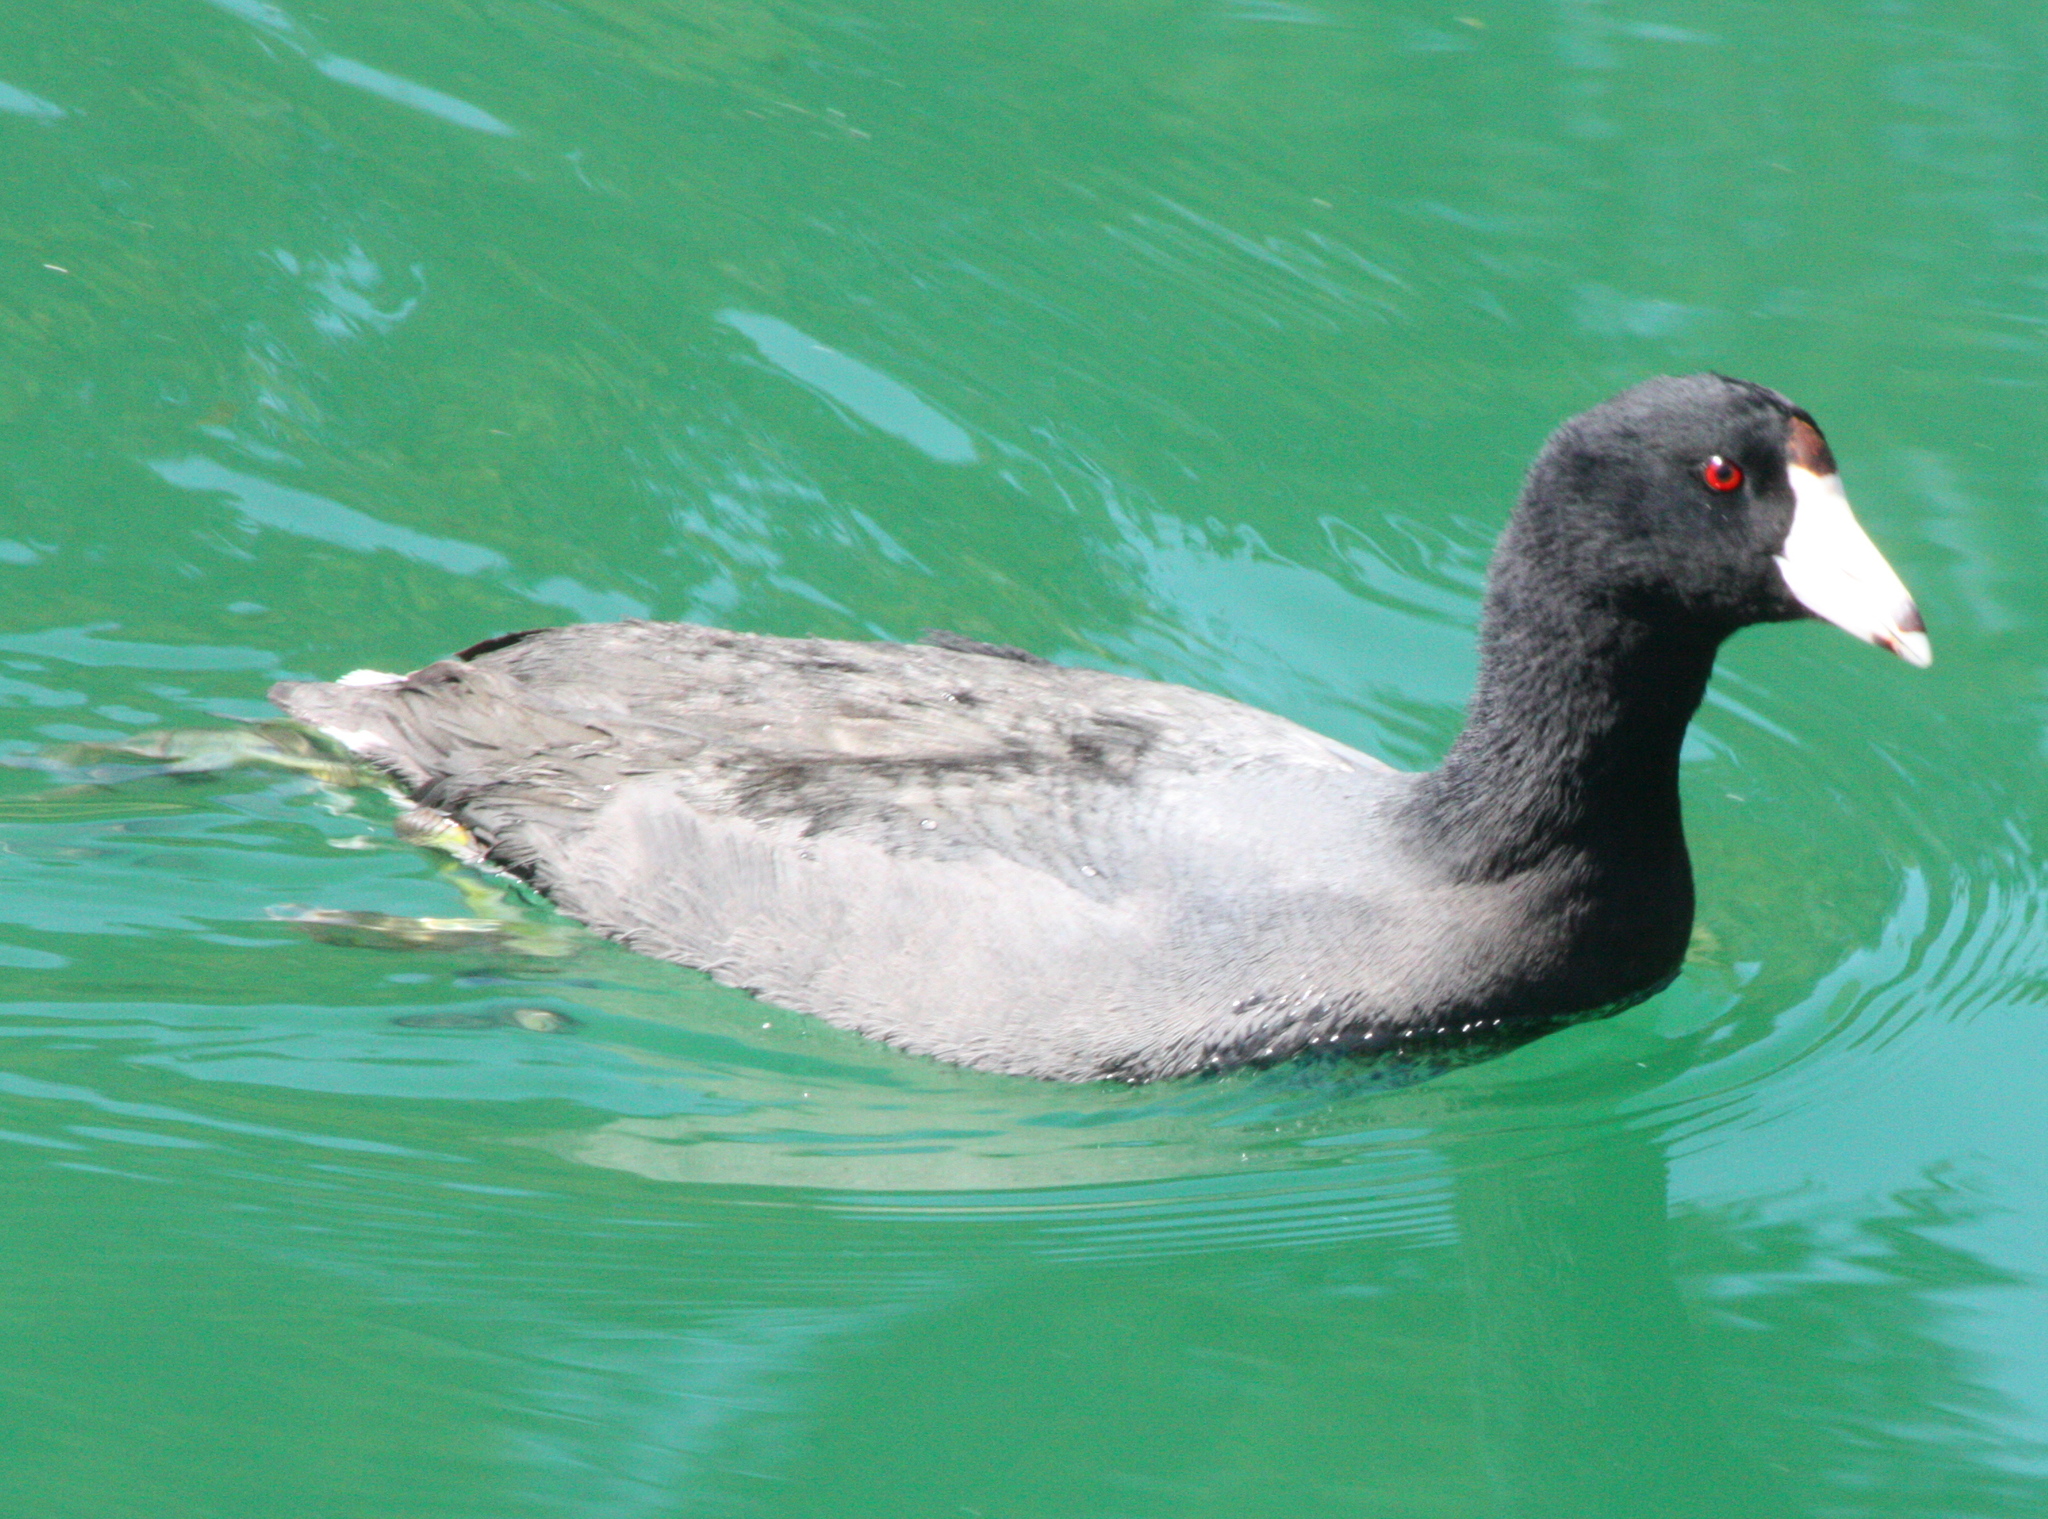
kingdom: Animalia
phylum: Chordata
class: Aves
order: Gruiformes
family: Rallidae
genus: Fulica
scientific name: Fulica americana
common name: American coot
